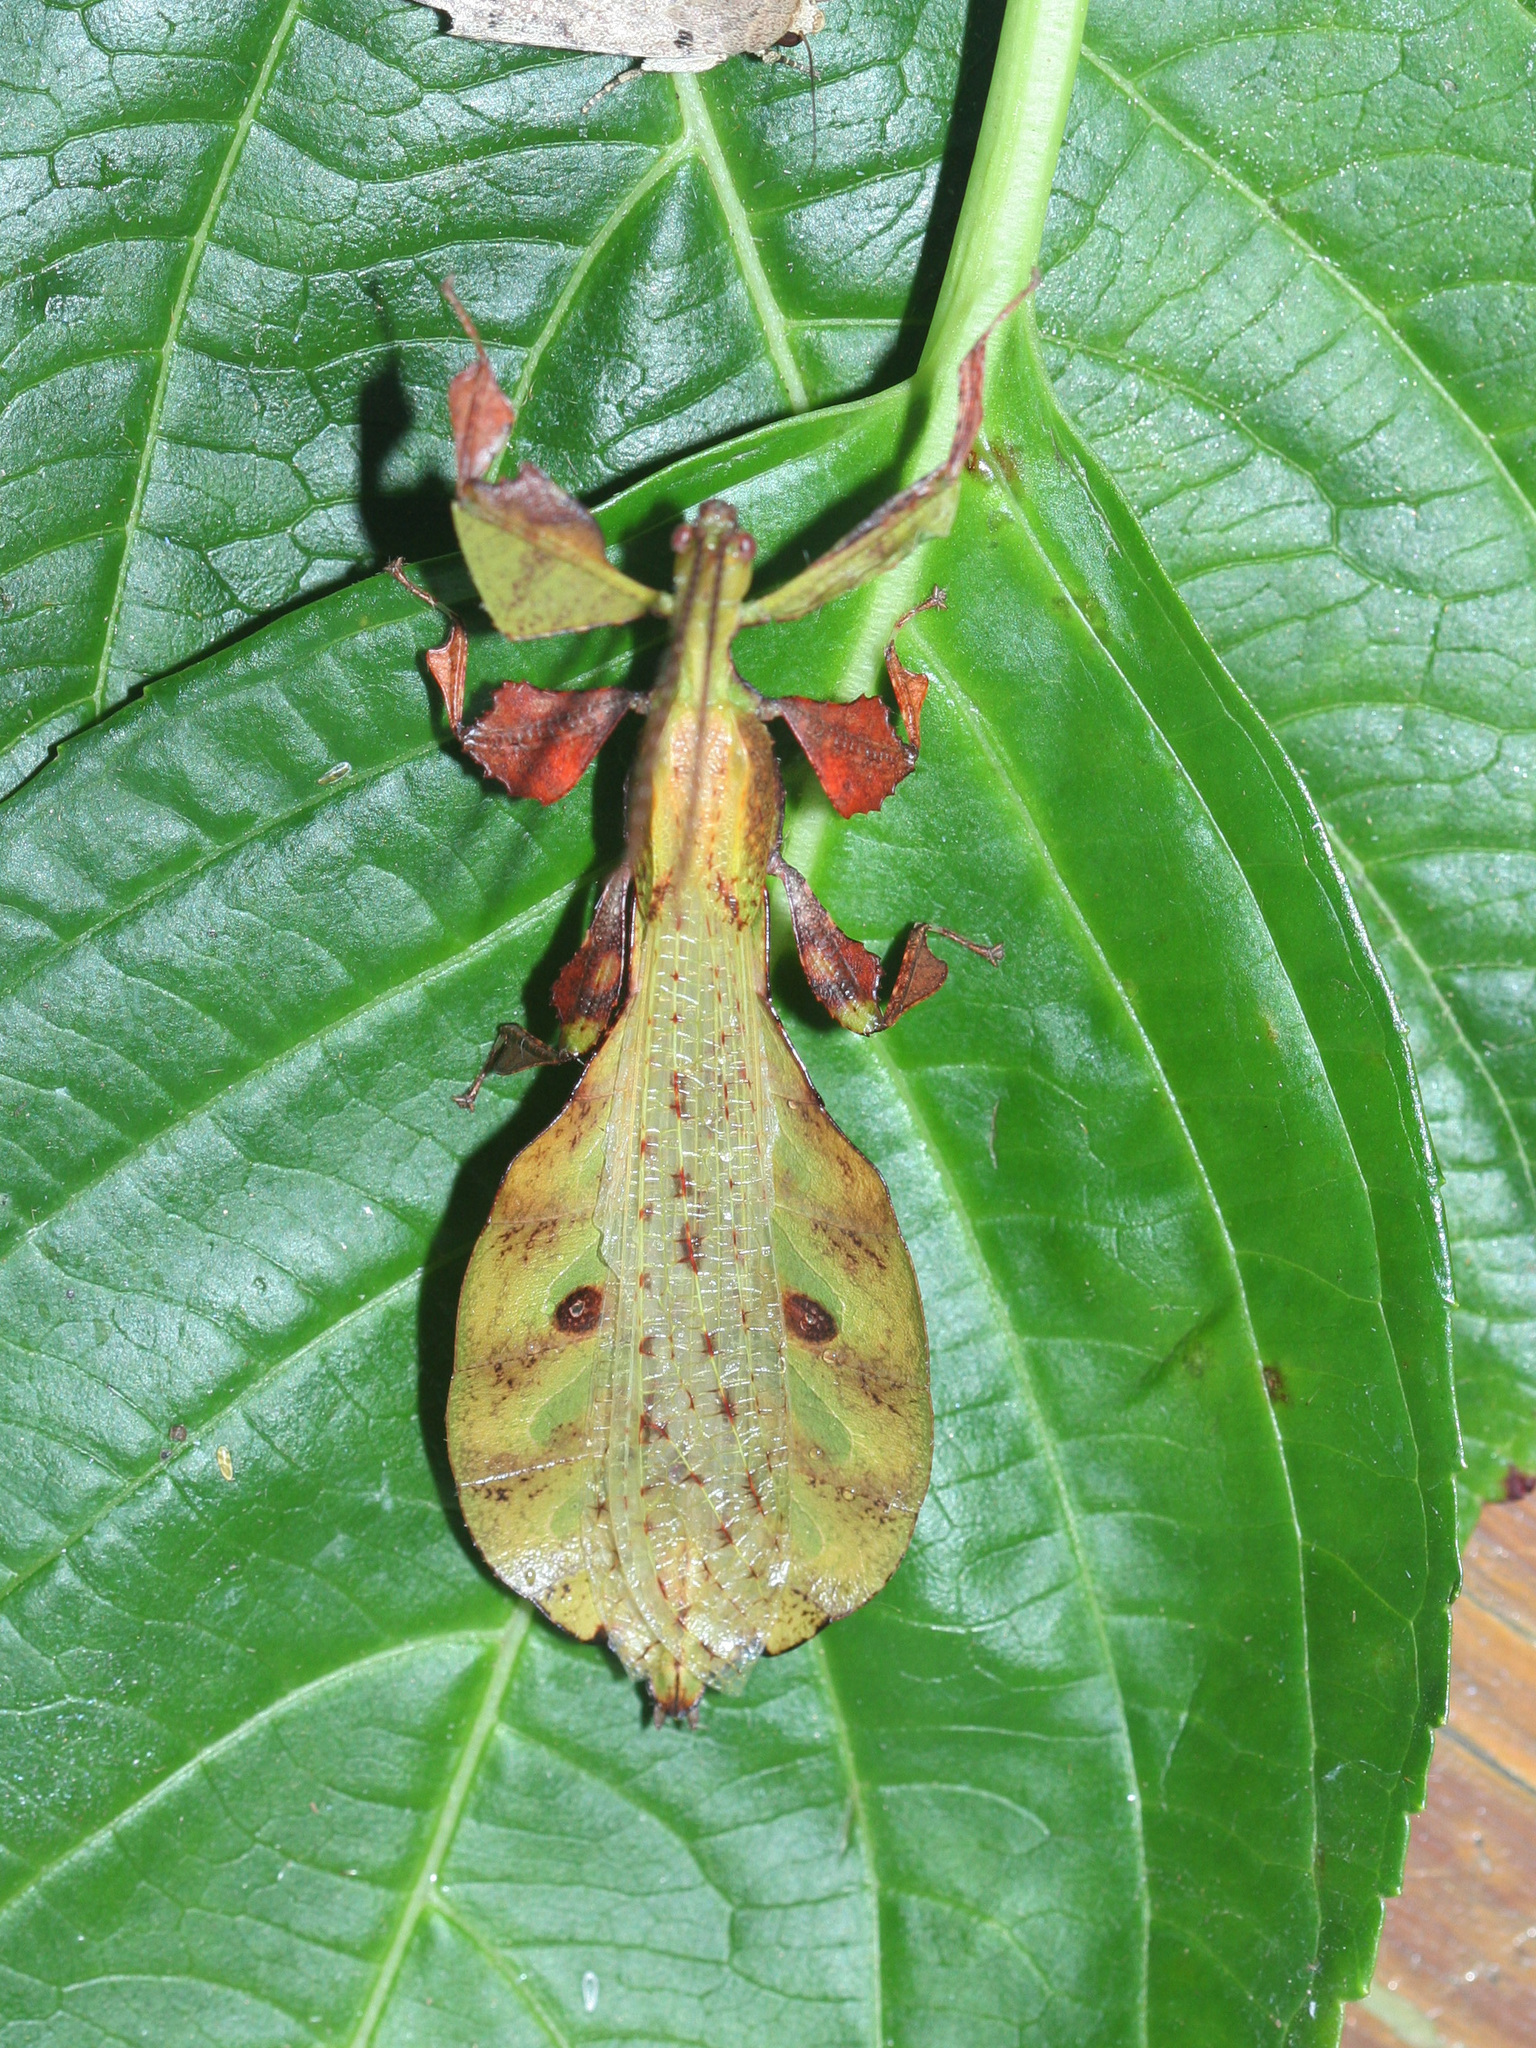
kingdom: Animalia
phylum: Arthropoda
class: Insecta
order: Phasmida
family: Phylliidae
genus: Pulchriphyllium
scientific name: Pulchriphyllium bioculatum
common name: Gray's leaf insect
